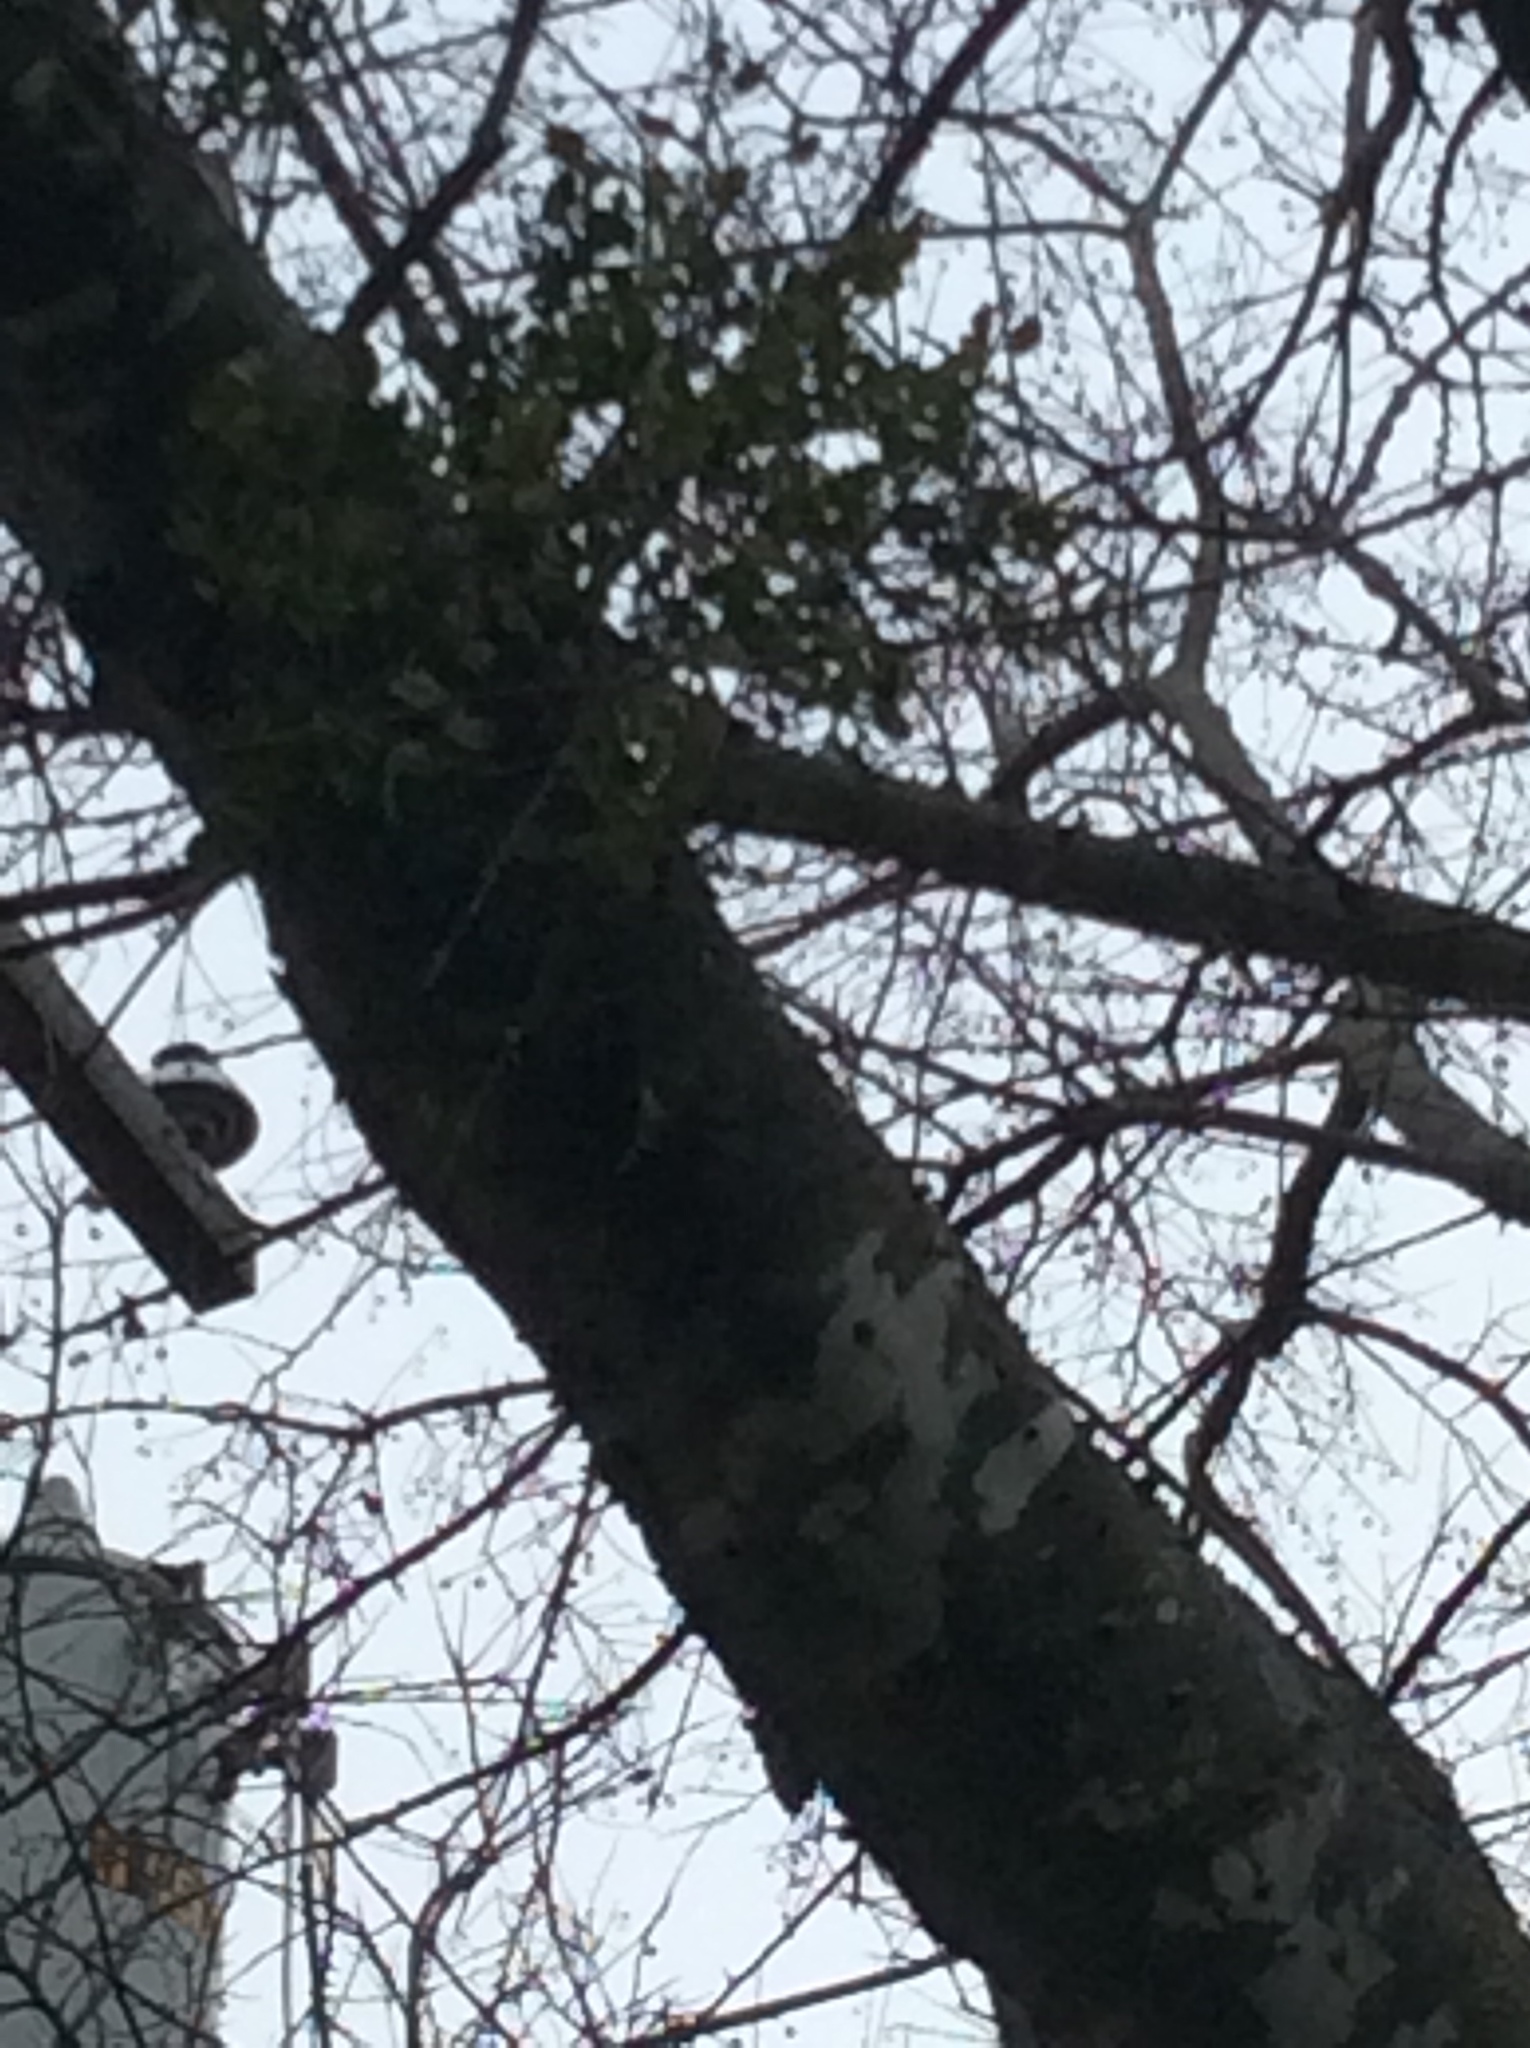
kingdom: Plantae
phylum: Tracheophyta
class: Magnoliopsida
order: Santalales
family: Viscaceae
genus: Phoradendron
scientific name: Phoradendron leucarpum
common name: Pacific mistletoe
